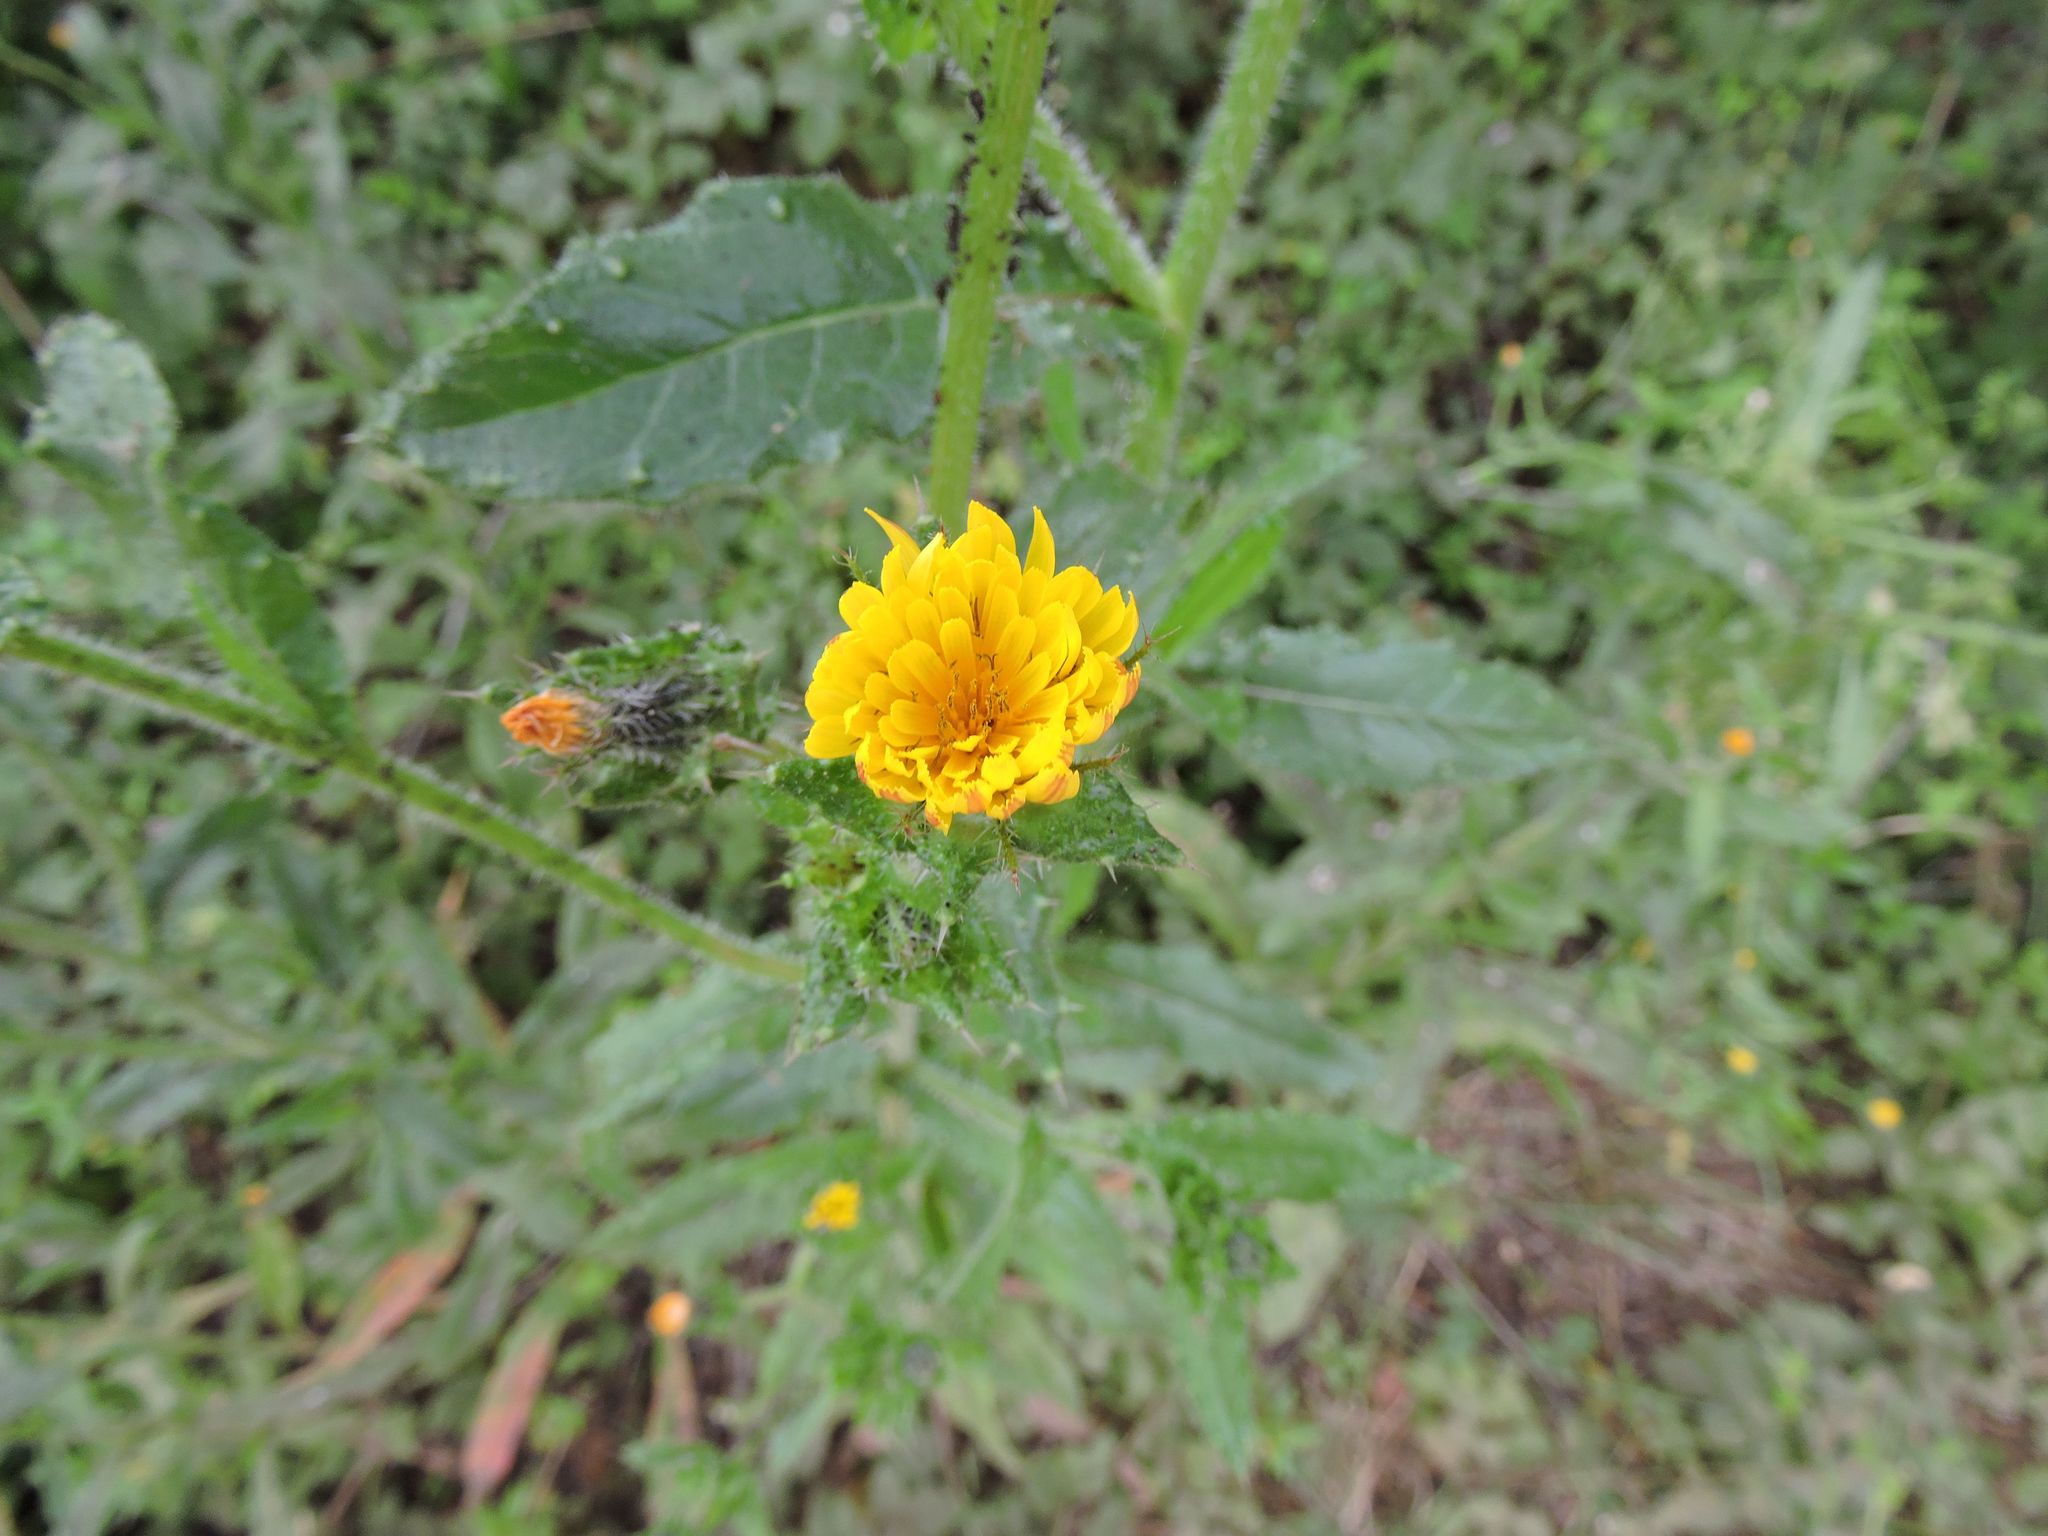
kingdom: Plantae
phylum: Tracheophyta
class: Magnoliopsida
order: Asterales
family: Asteraceae
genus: Helminthotheca
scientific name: Helminthotheca echioides
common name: Ox-tongue
